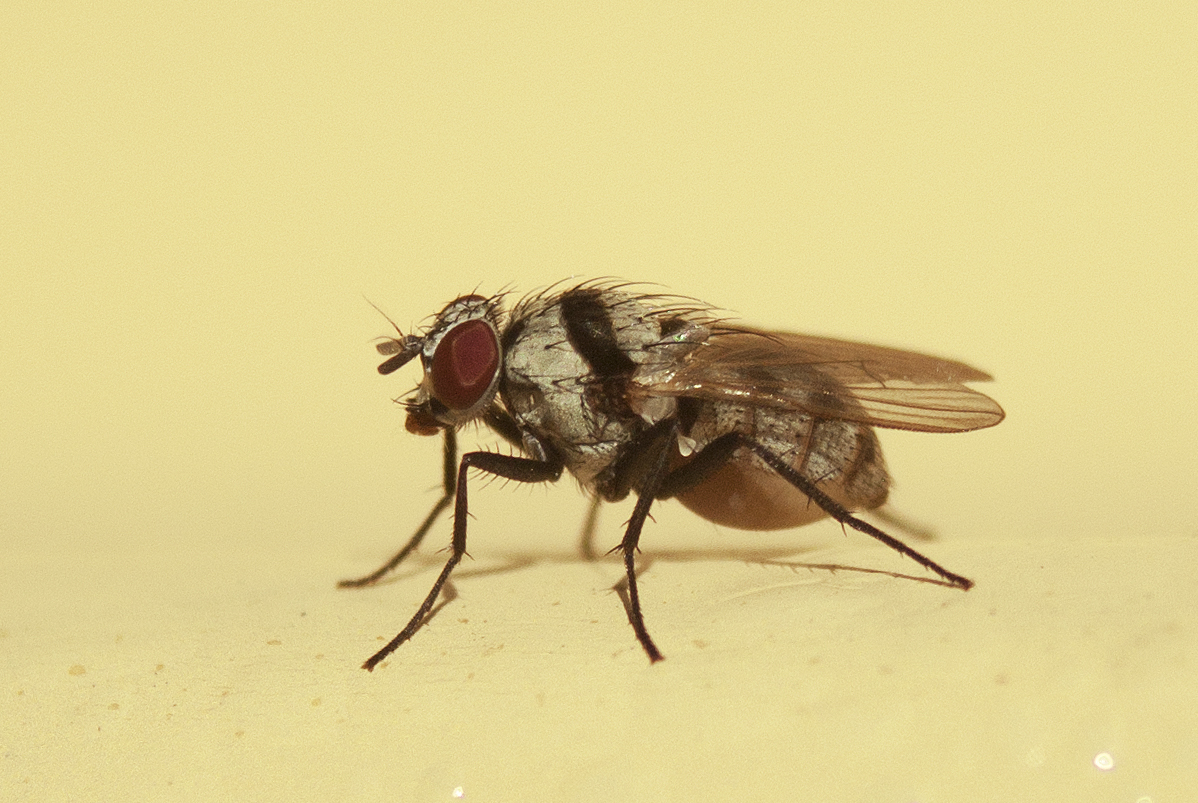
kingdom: Animalia
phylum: Arthropoda
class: Insecta
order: Diptera
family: Anthomyiidae
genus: Anthomyia
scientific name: Anthomyia silvestris
